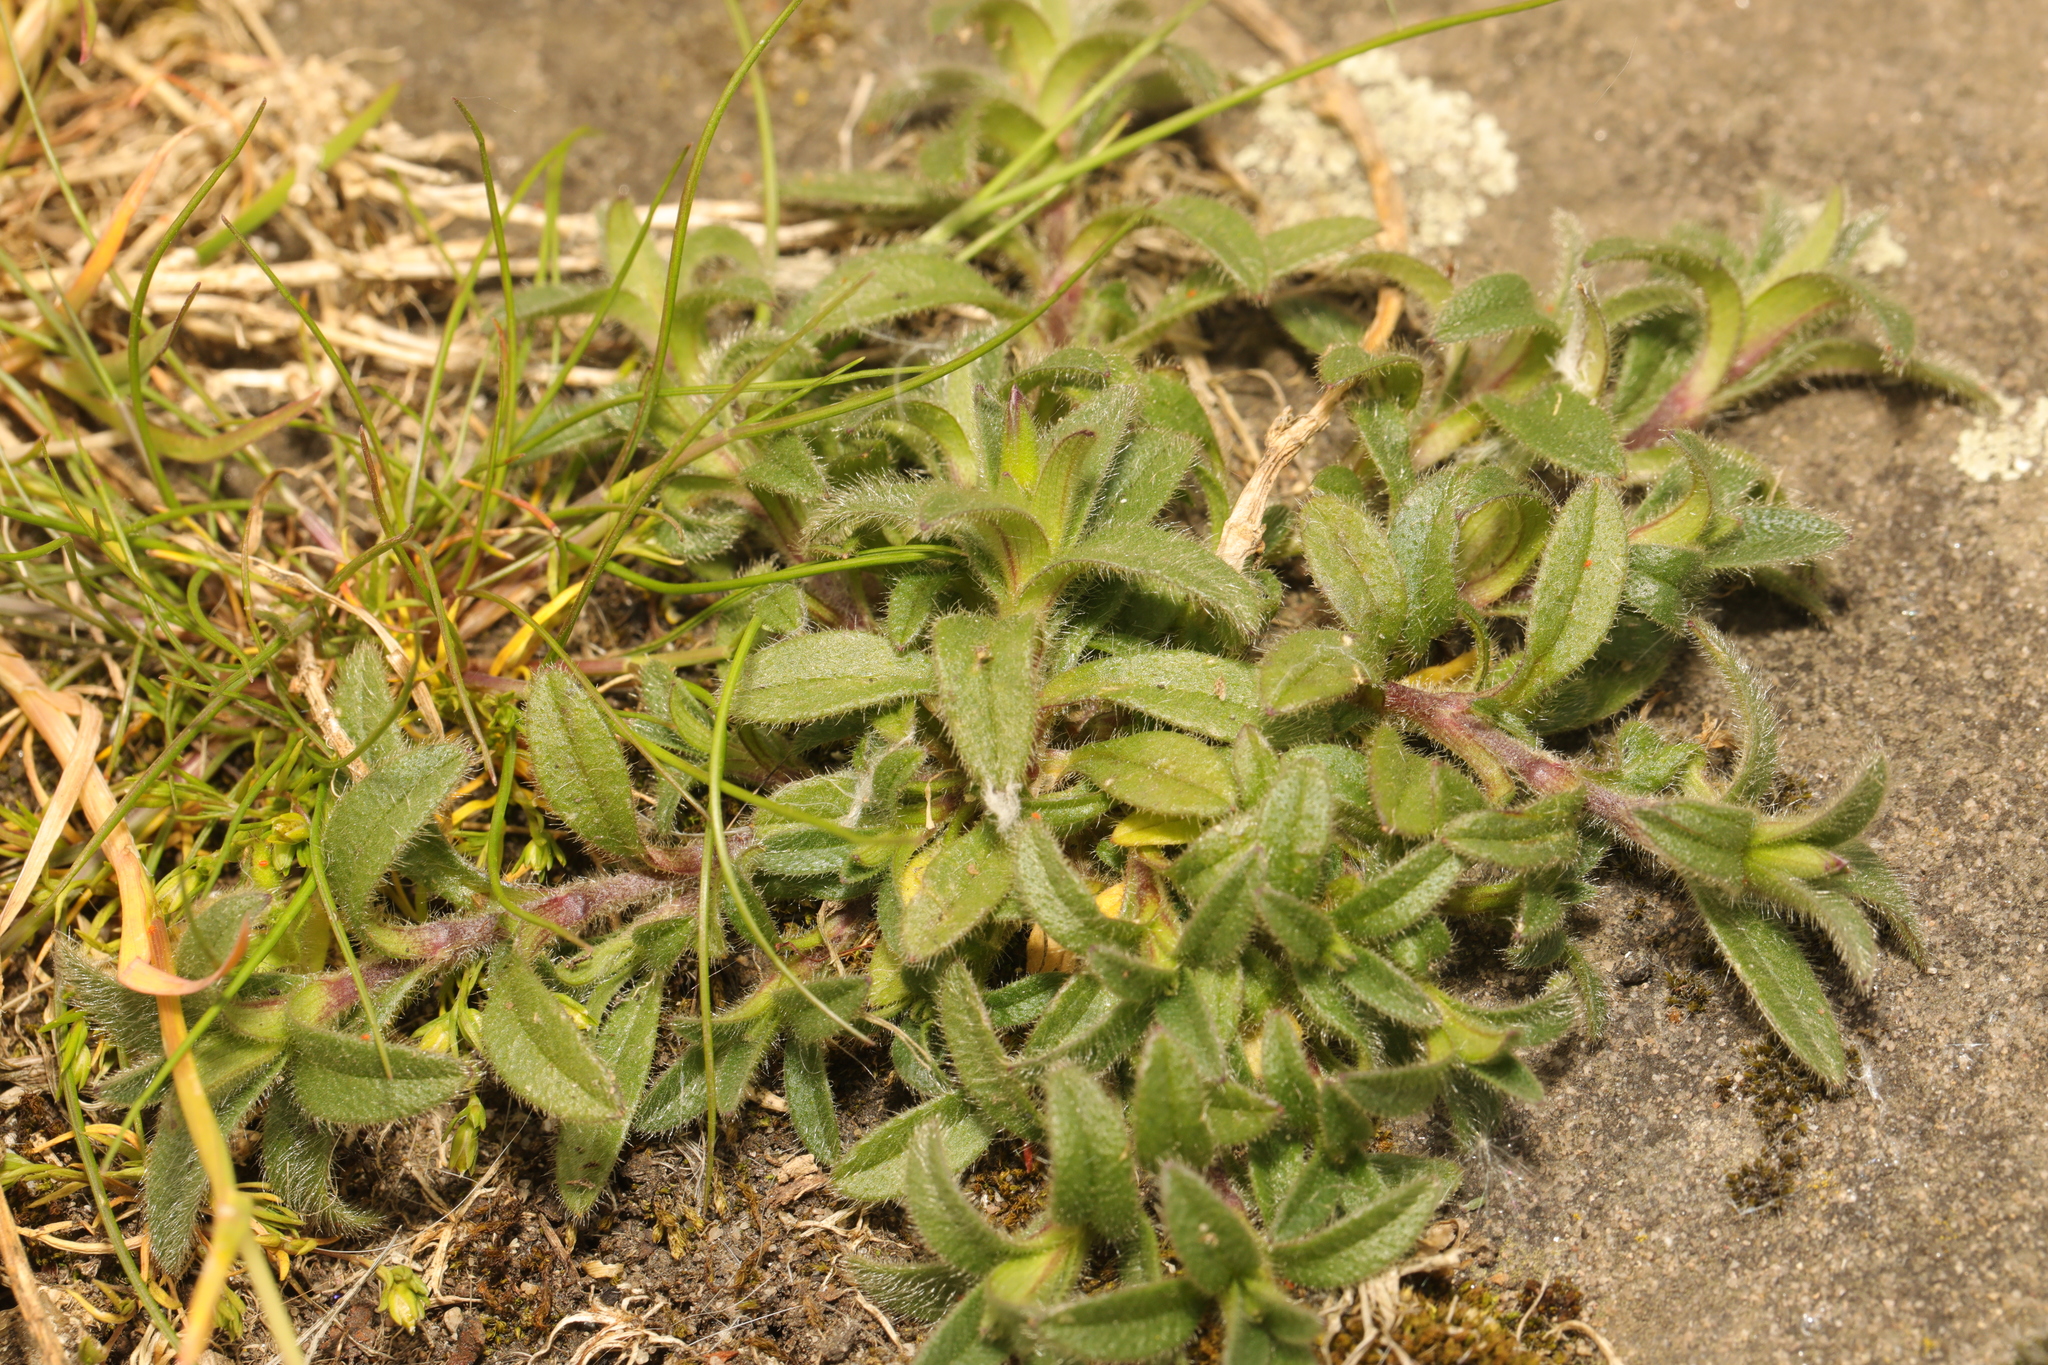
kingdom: Plantae
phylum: Tracheophyta
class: Magnoliopsida
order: Caryophyllales
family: Caryophyllaceae
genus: Cerastium
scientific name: Cerastium fontanum
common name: Common mouse-ear
